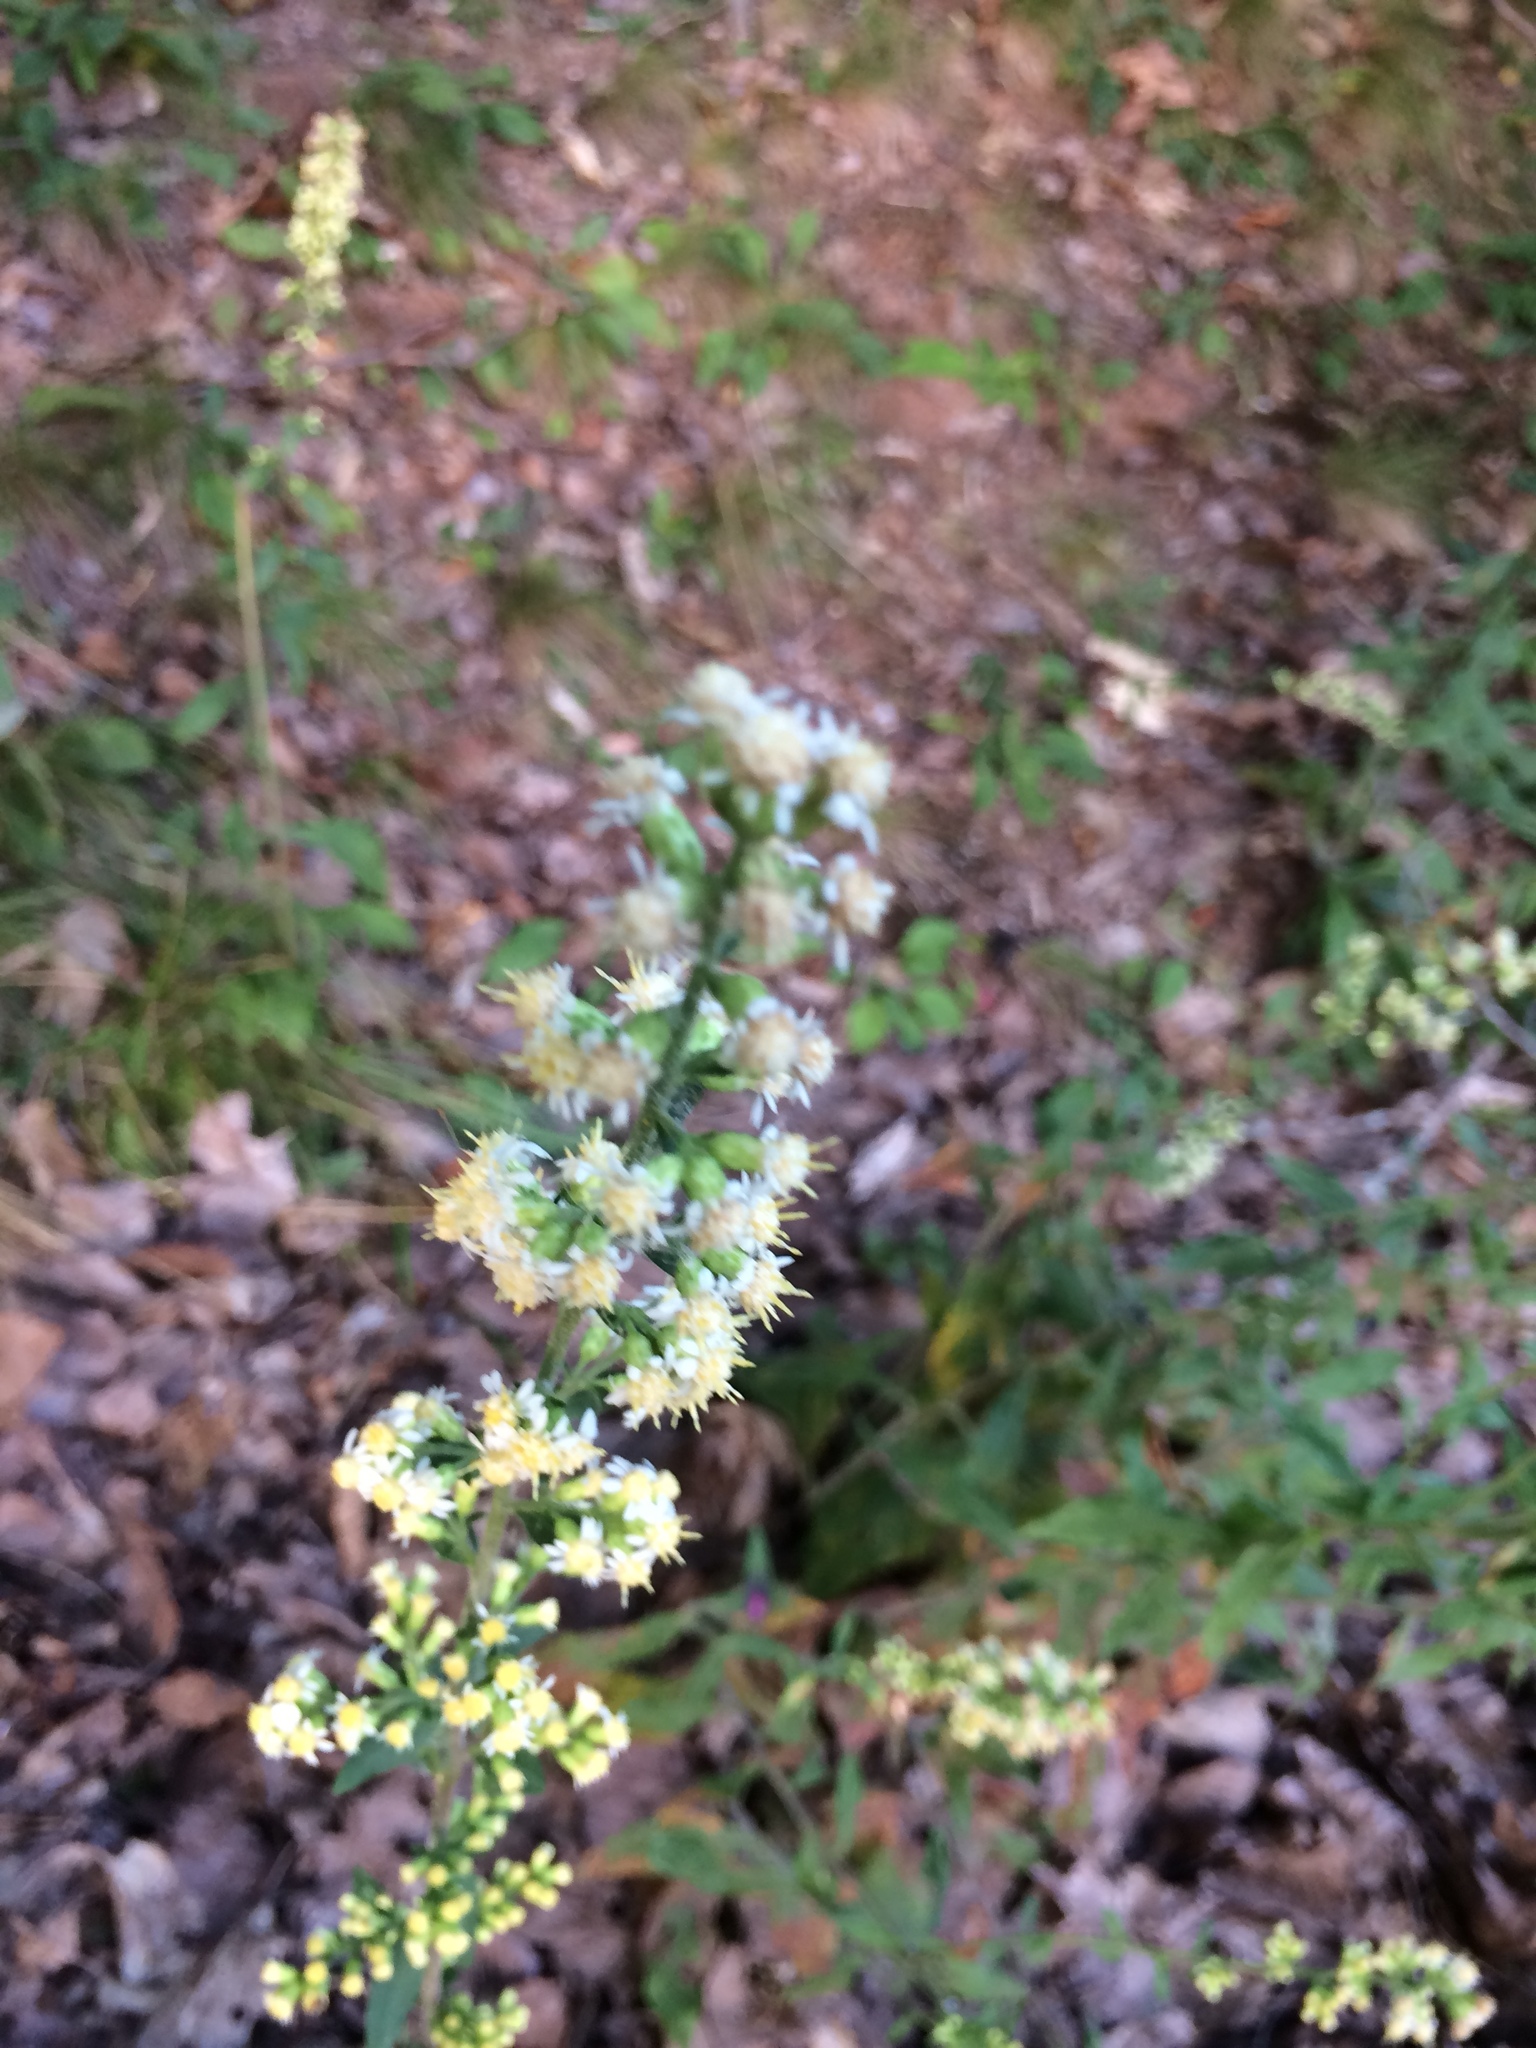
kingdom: Plantae
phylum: Tracheophyta
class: Magnoliopsida
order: Asterales
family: Asteraceae
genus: Solidago
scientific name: Solidago bicolor
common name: Silverrod
